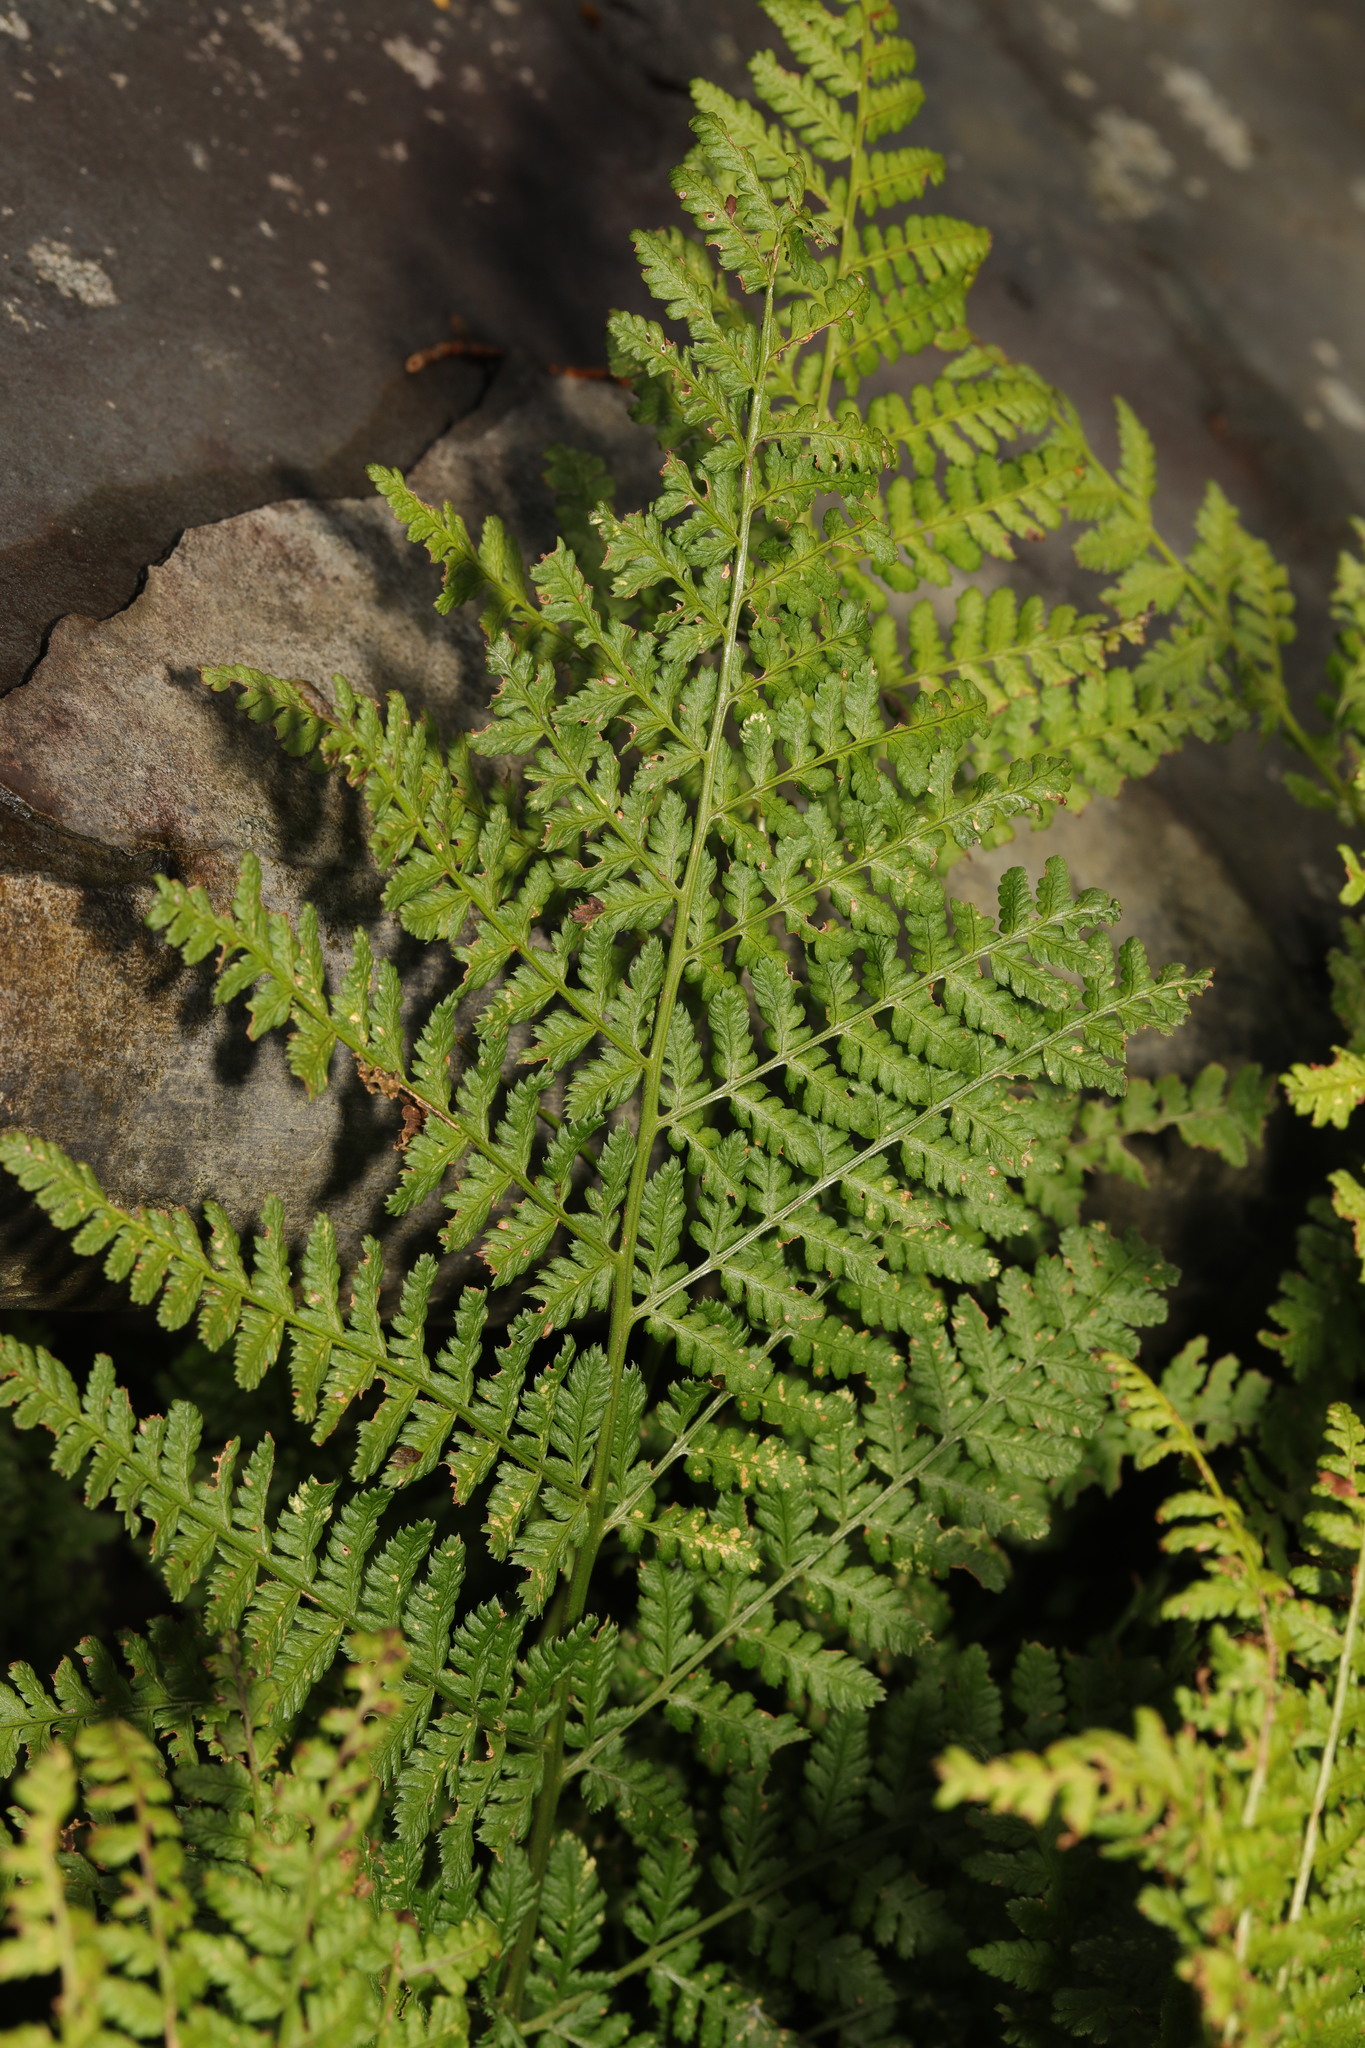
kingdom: Plantae
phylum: Tracheophyta
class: Polypodiopsida
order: Polypodiales
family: Dryopteridaceae
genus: Dryopteris
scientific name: Dryopteris dilatata
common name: Broad buckler-fern
